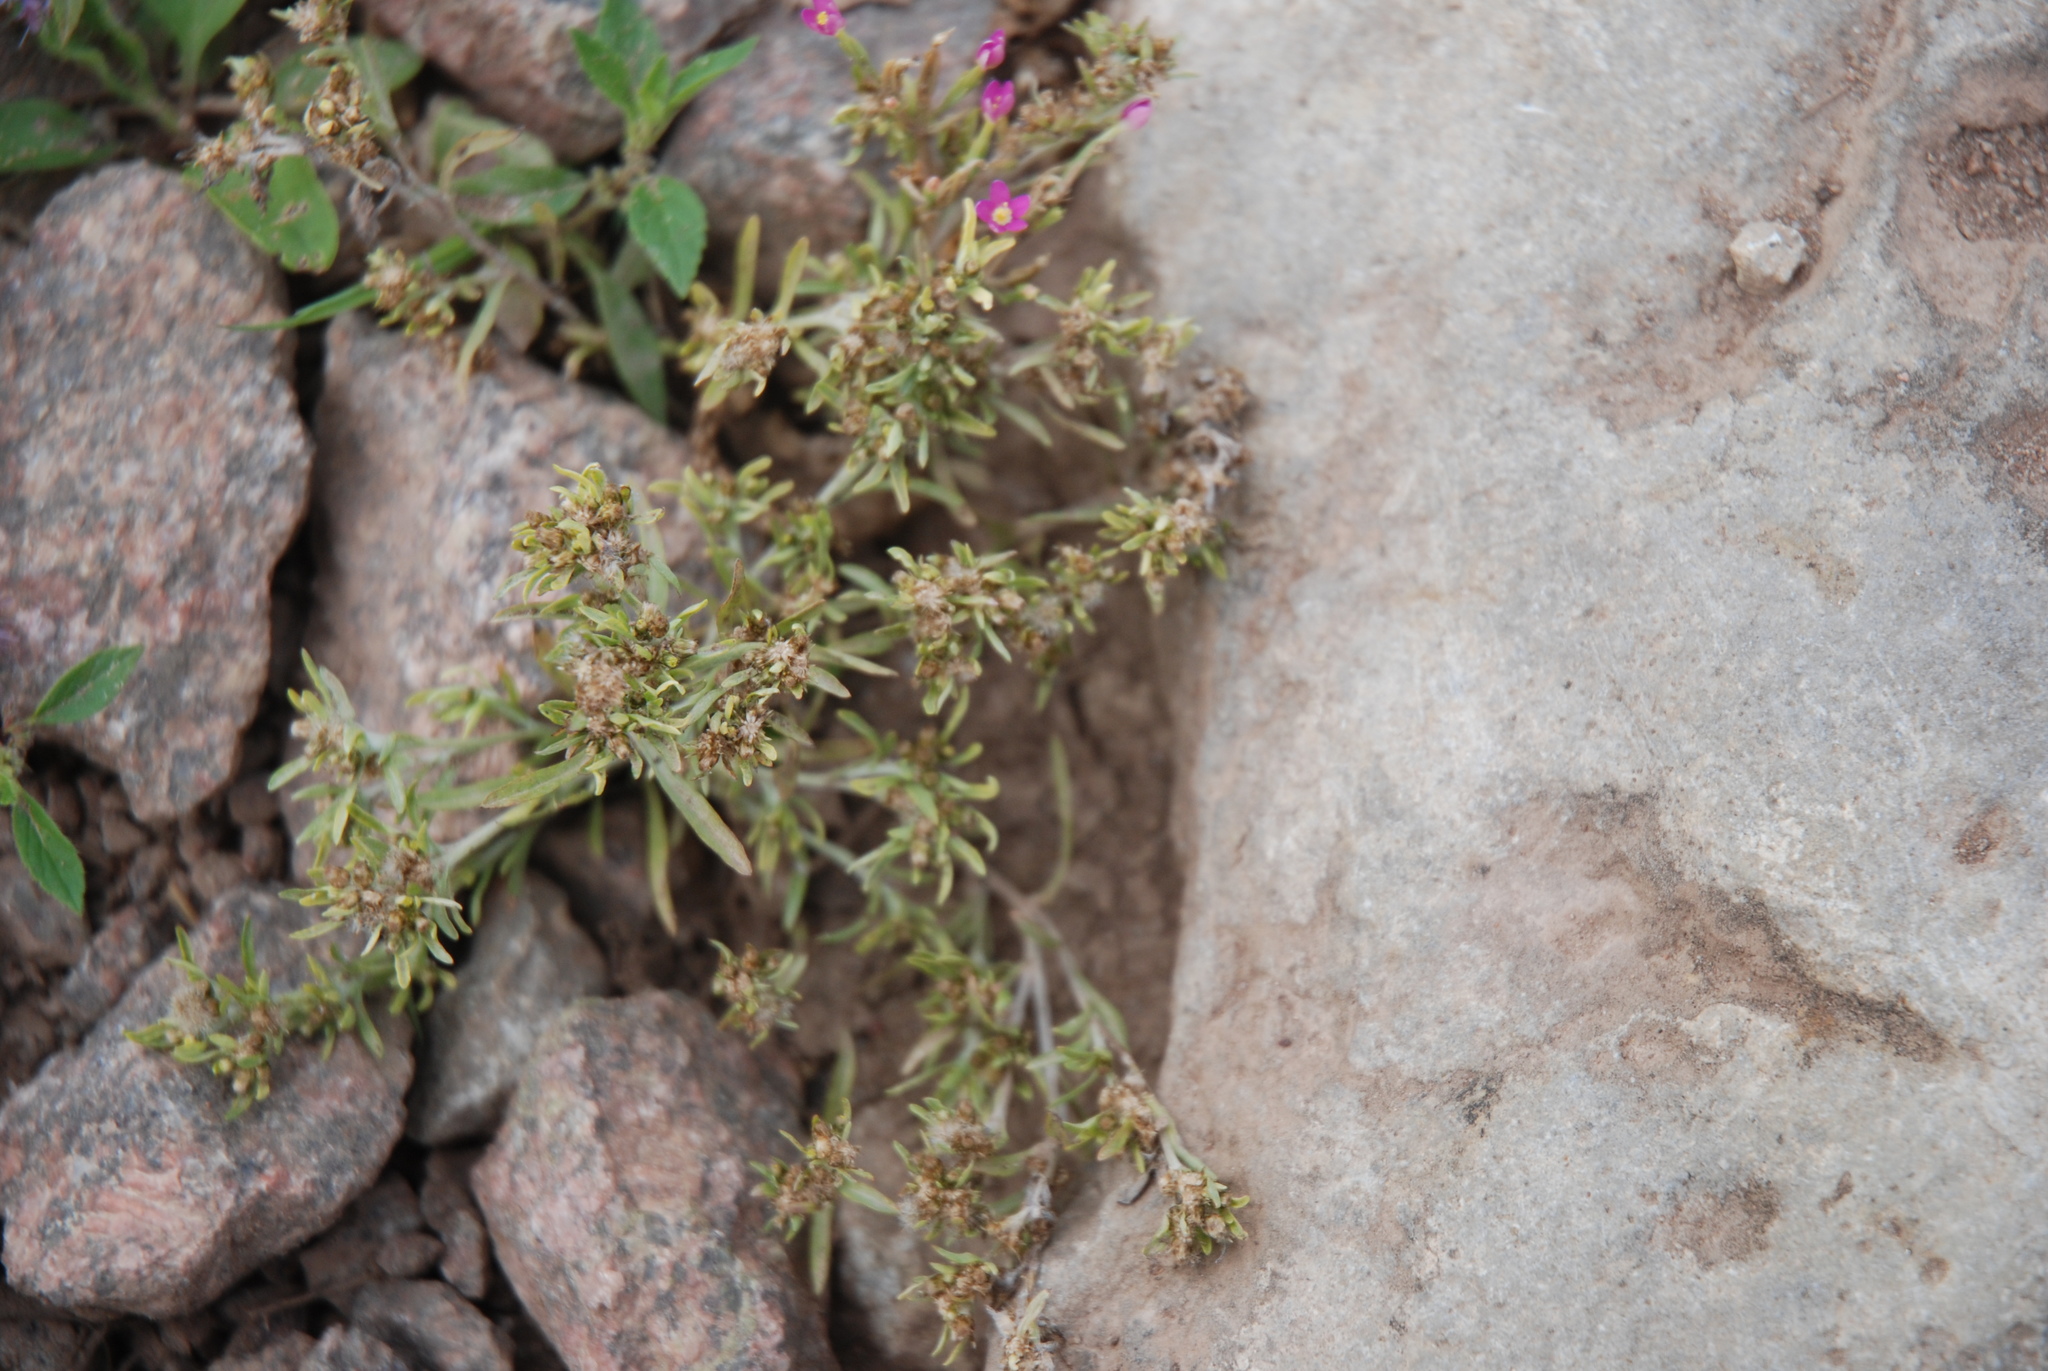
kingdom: Plantae
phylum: Tracheophyta
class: Magnoliopsida
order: Asterales
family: Asteraceae
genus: Gnaphalium
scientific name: Gnaphalium uliginosum
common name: Marsh cudweed
